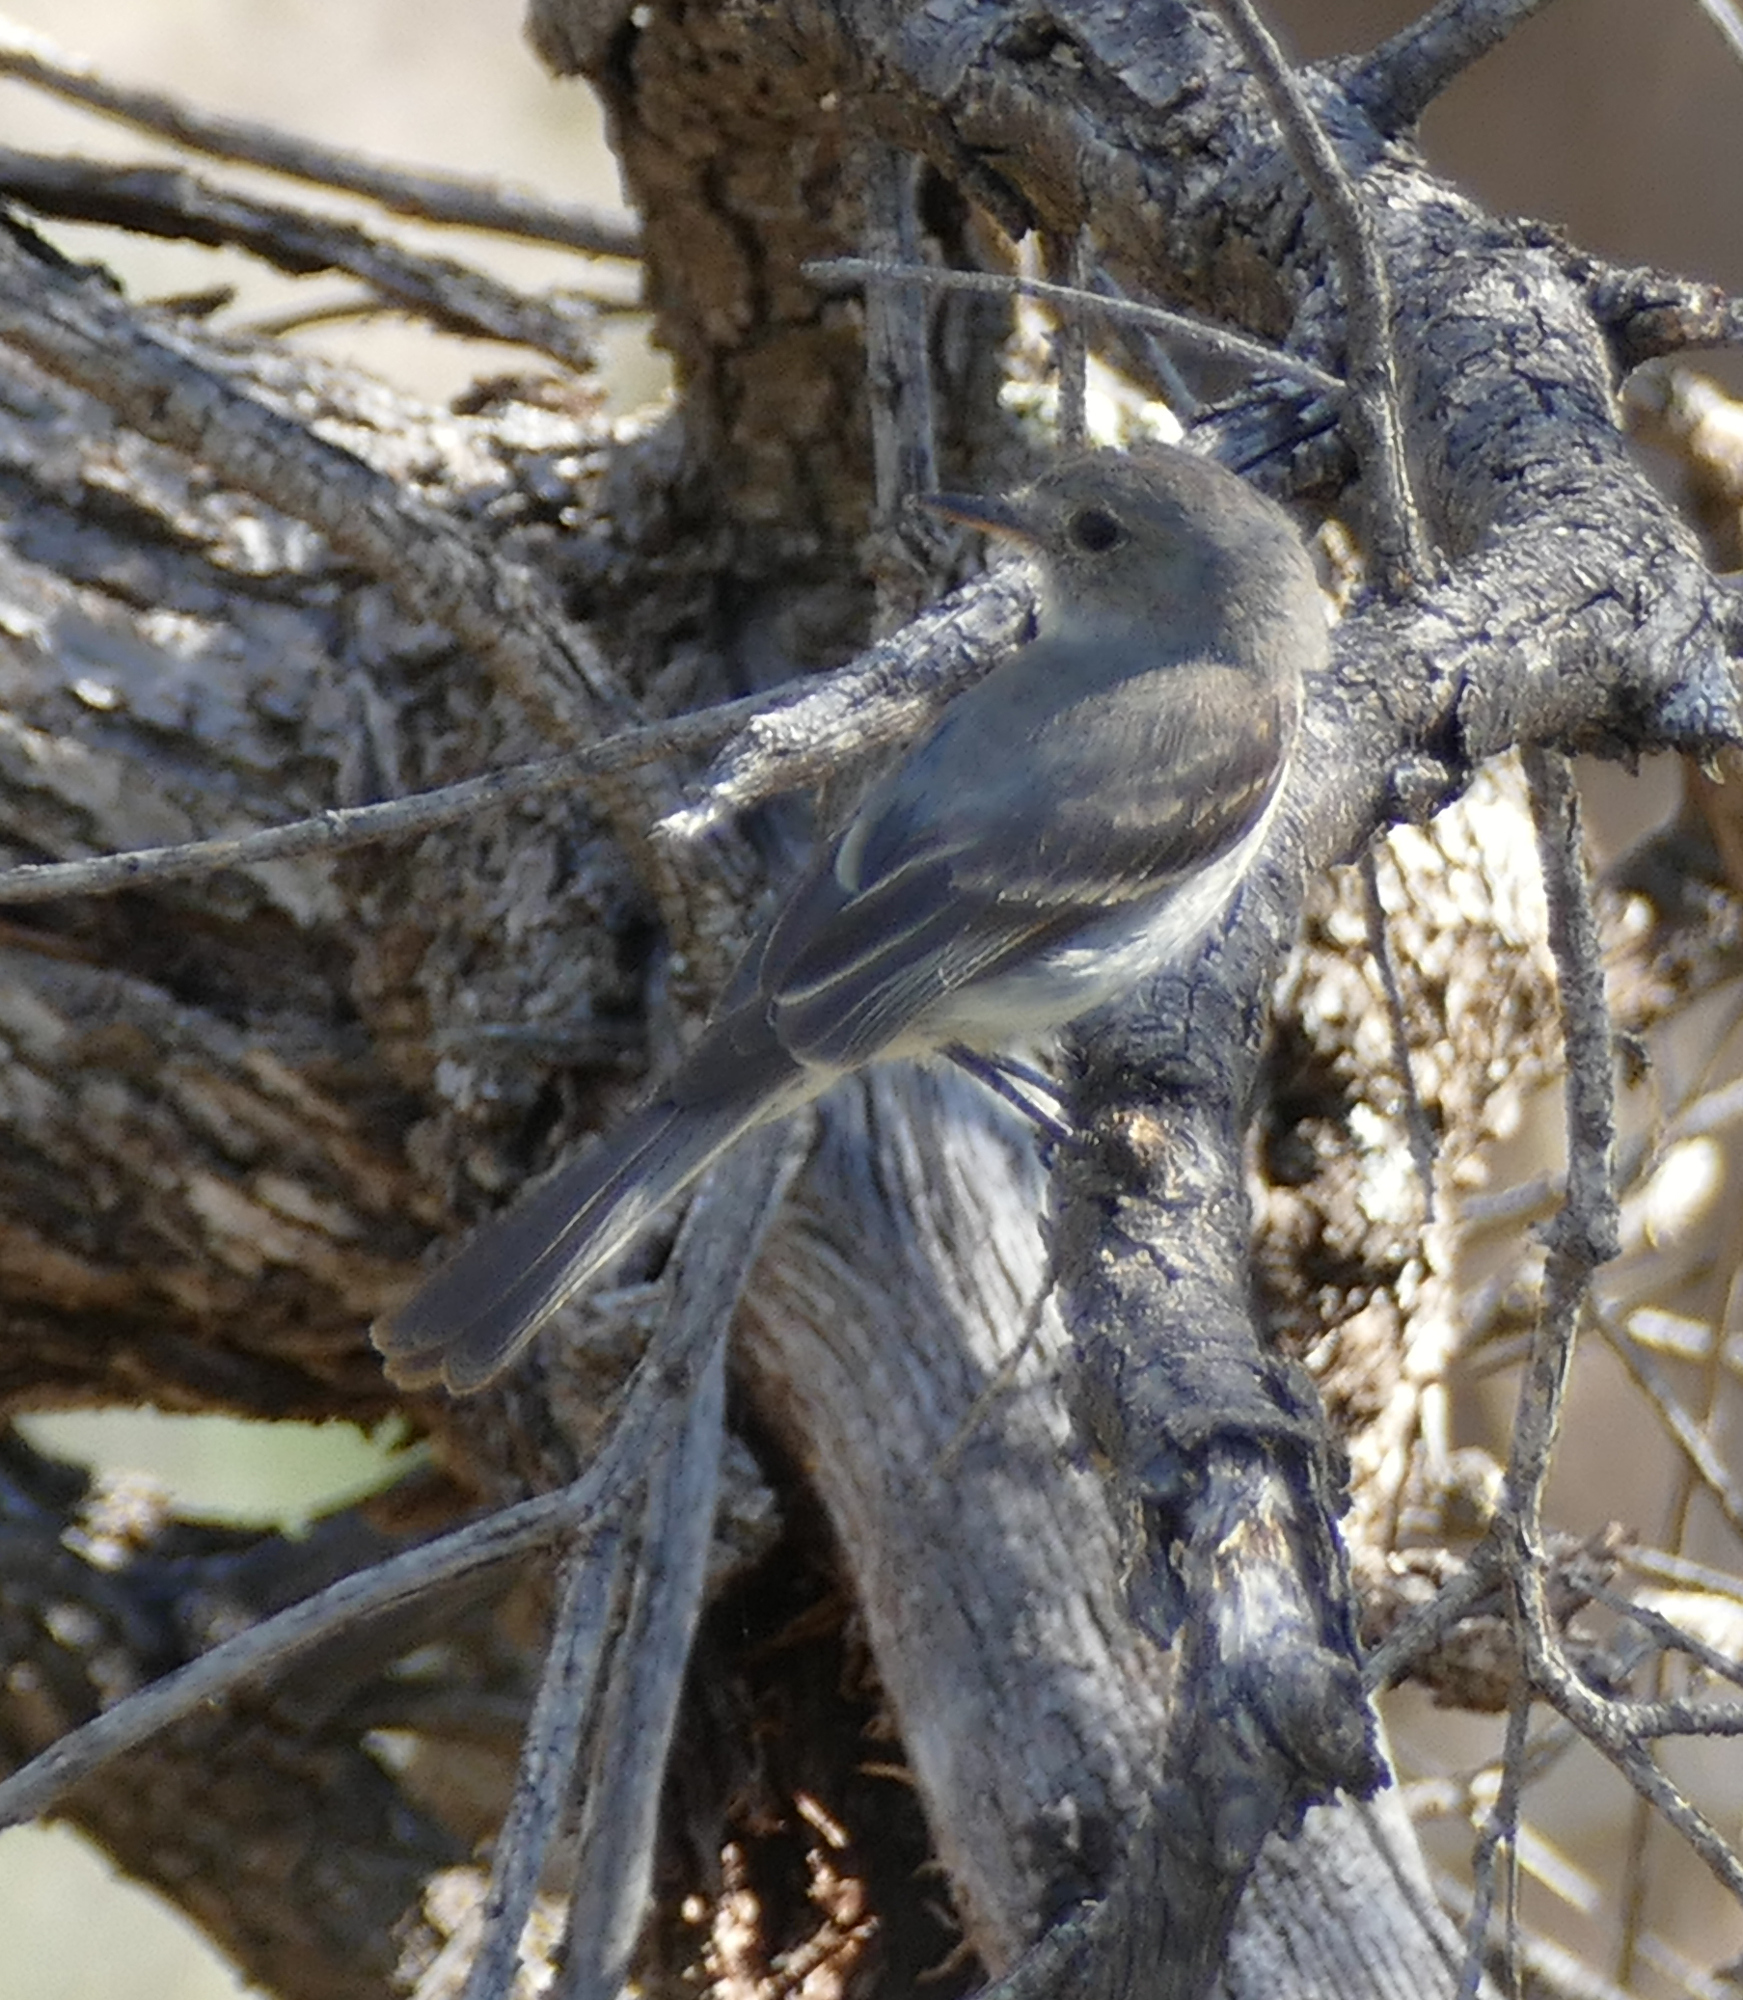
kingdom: Animalia
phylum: Chordata
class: Aves
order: Passeriformes
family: Tyrannidae
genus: Empidonax
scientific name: Empidonax wrightii
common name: Gray flycatcher
